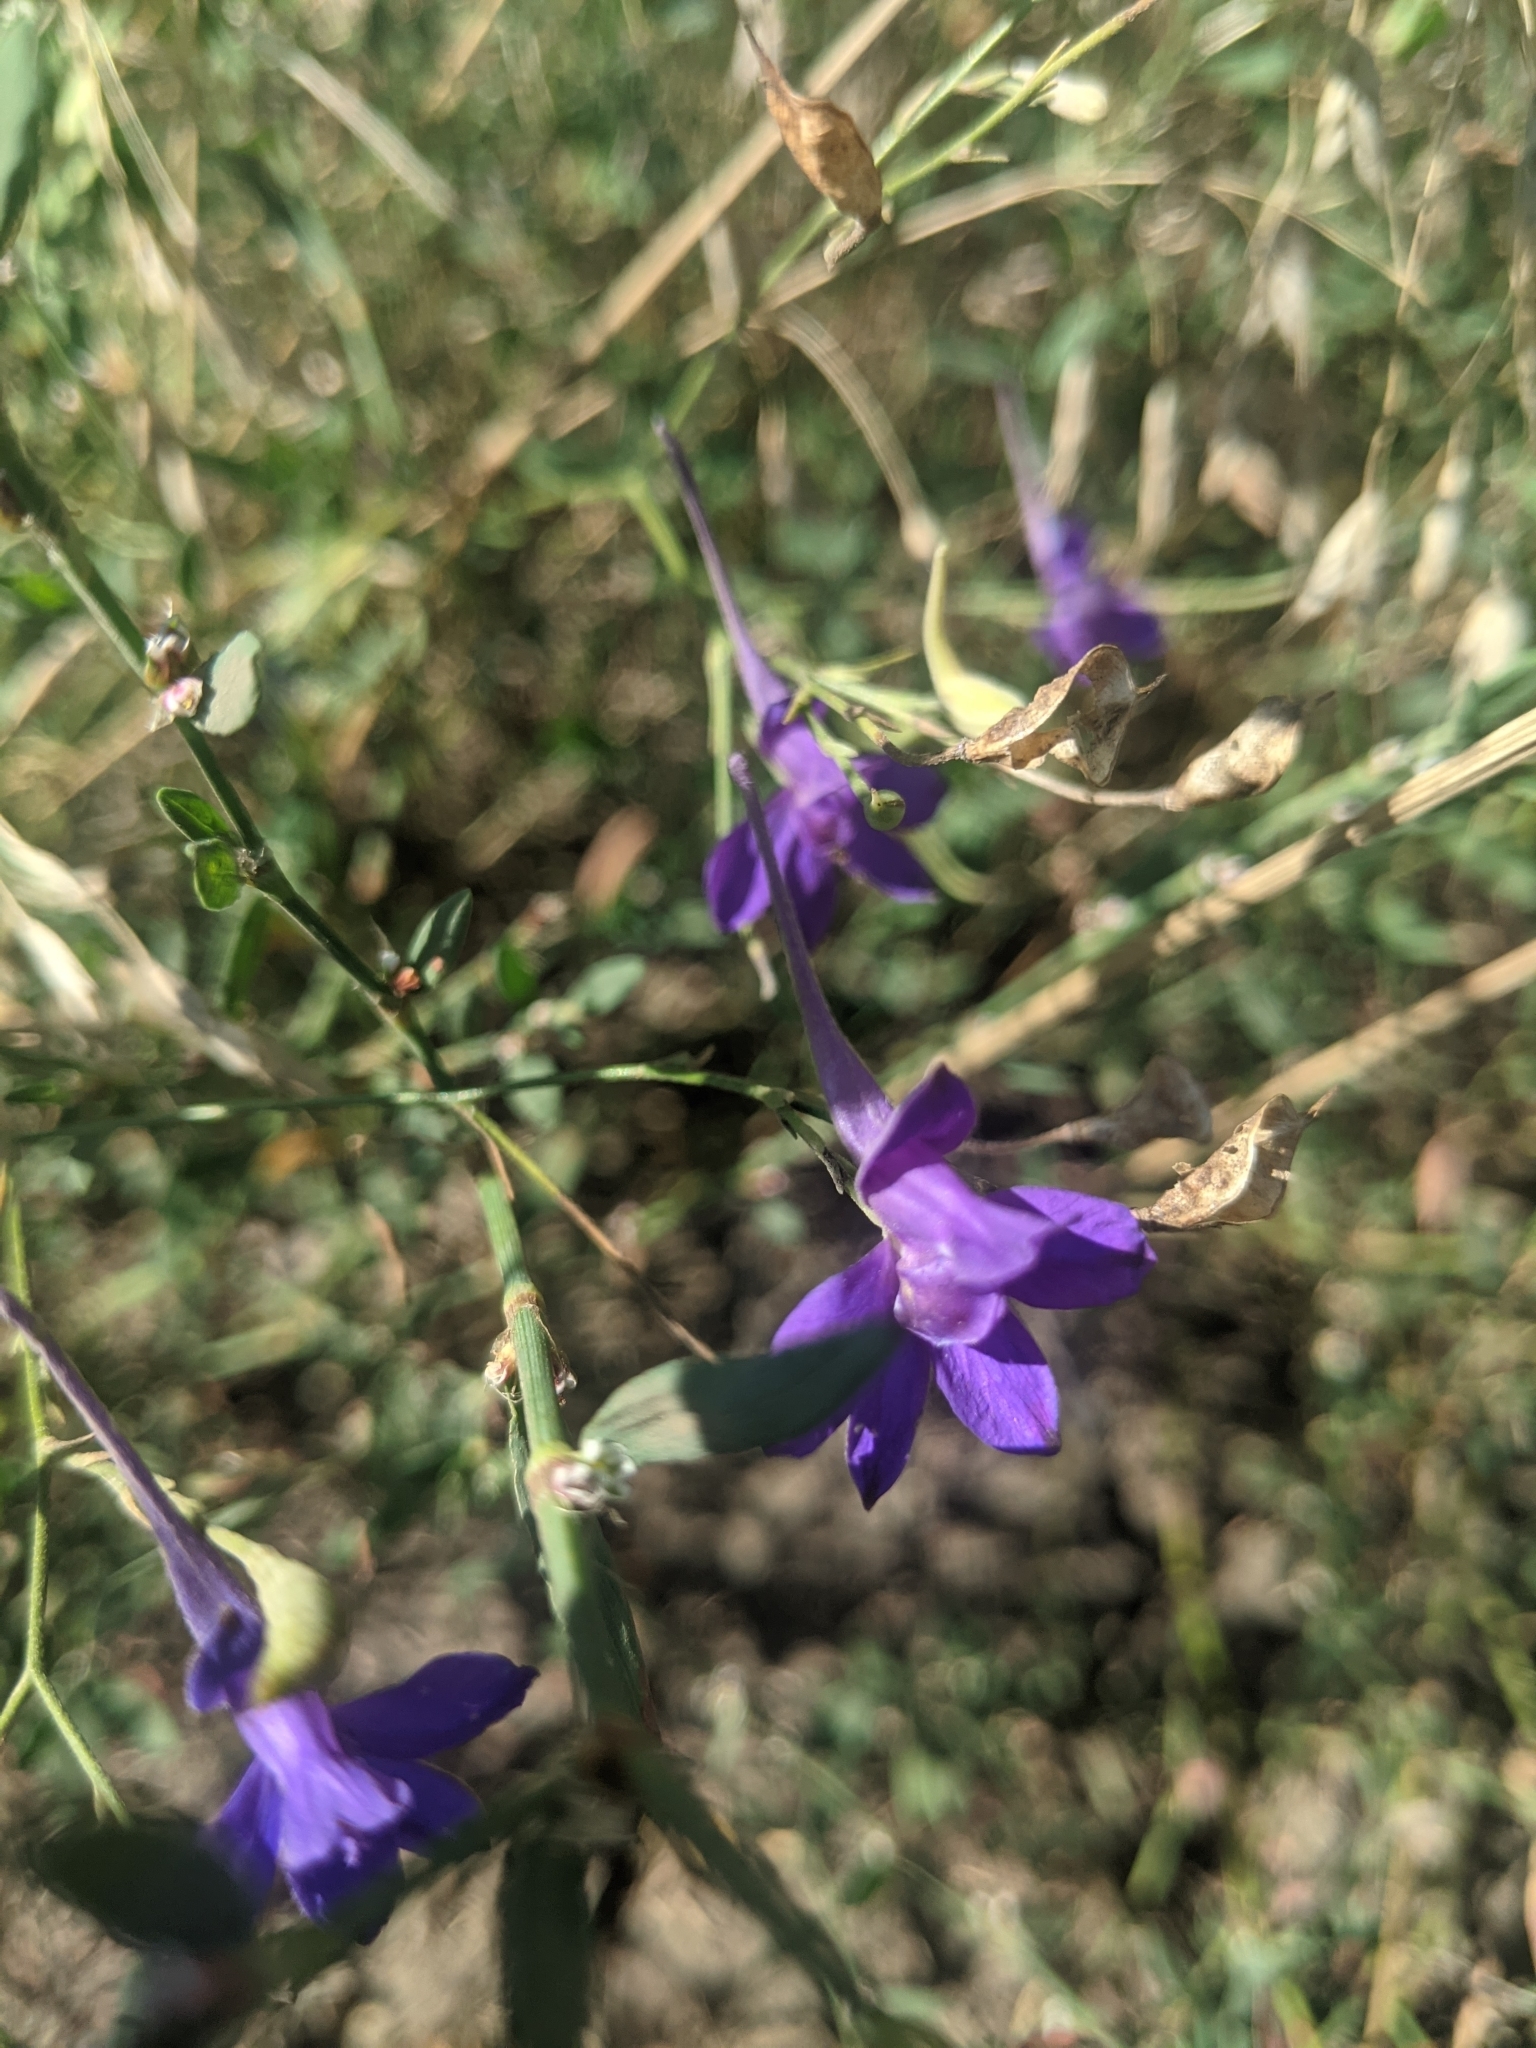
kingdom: Plantae
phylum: Tracheophyta
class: Magnoliopsida
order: Ranunculales
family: Ranunculaceae
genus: Delphinium
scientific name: Delphinium consolida
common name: Branching larkspur
